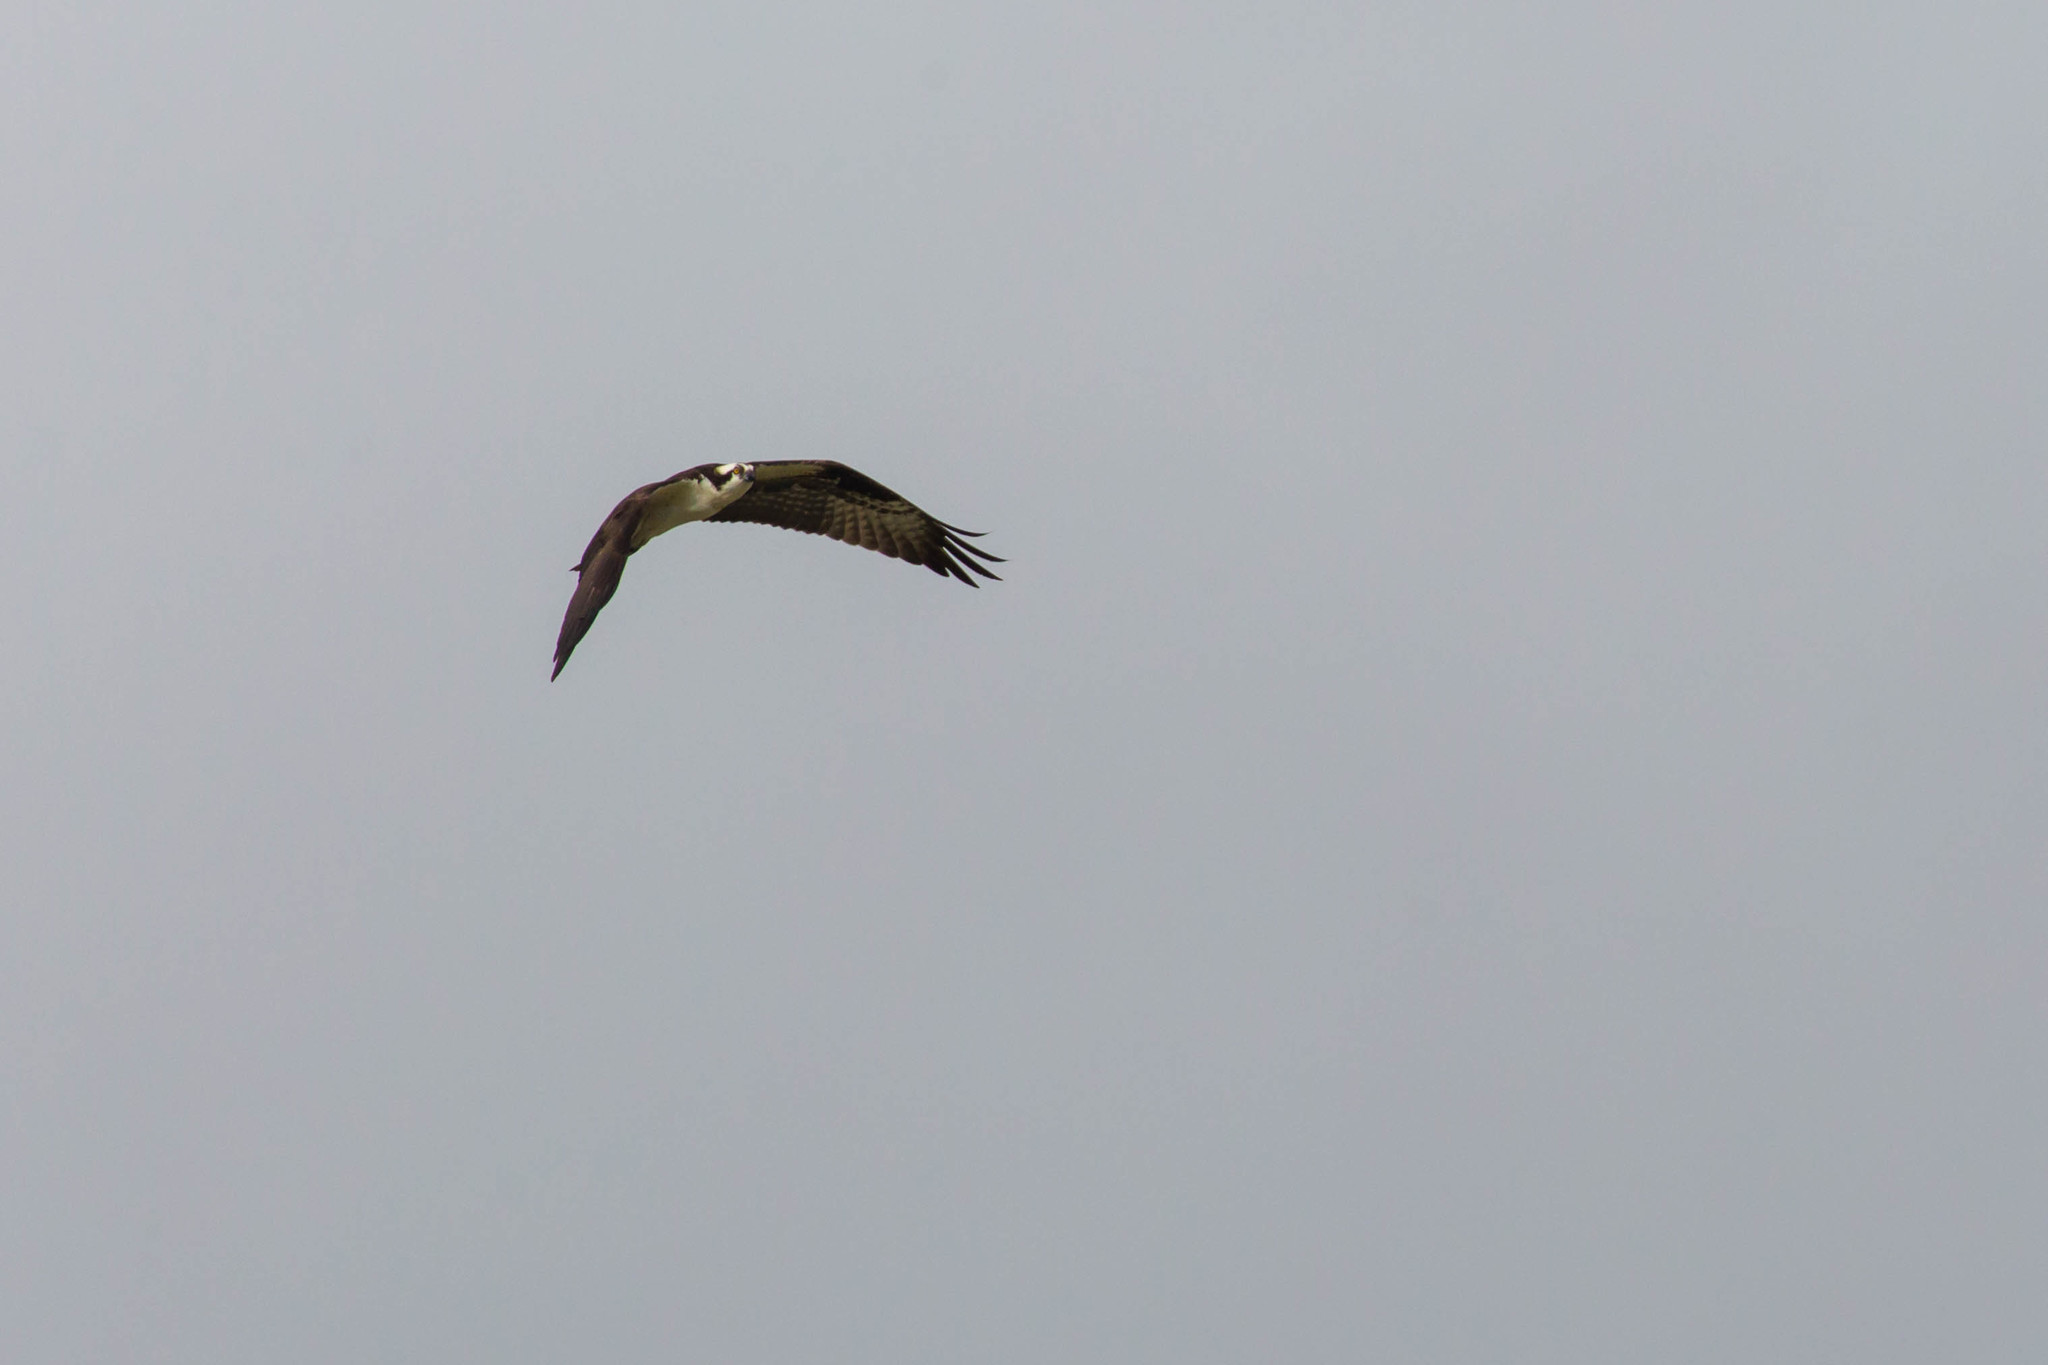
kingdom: Animalia
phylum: Chordata
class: Aves
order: Accipitriformes
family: Pandionidae
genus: Pandion
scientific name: Pandion haliaetus
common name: Osprey
